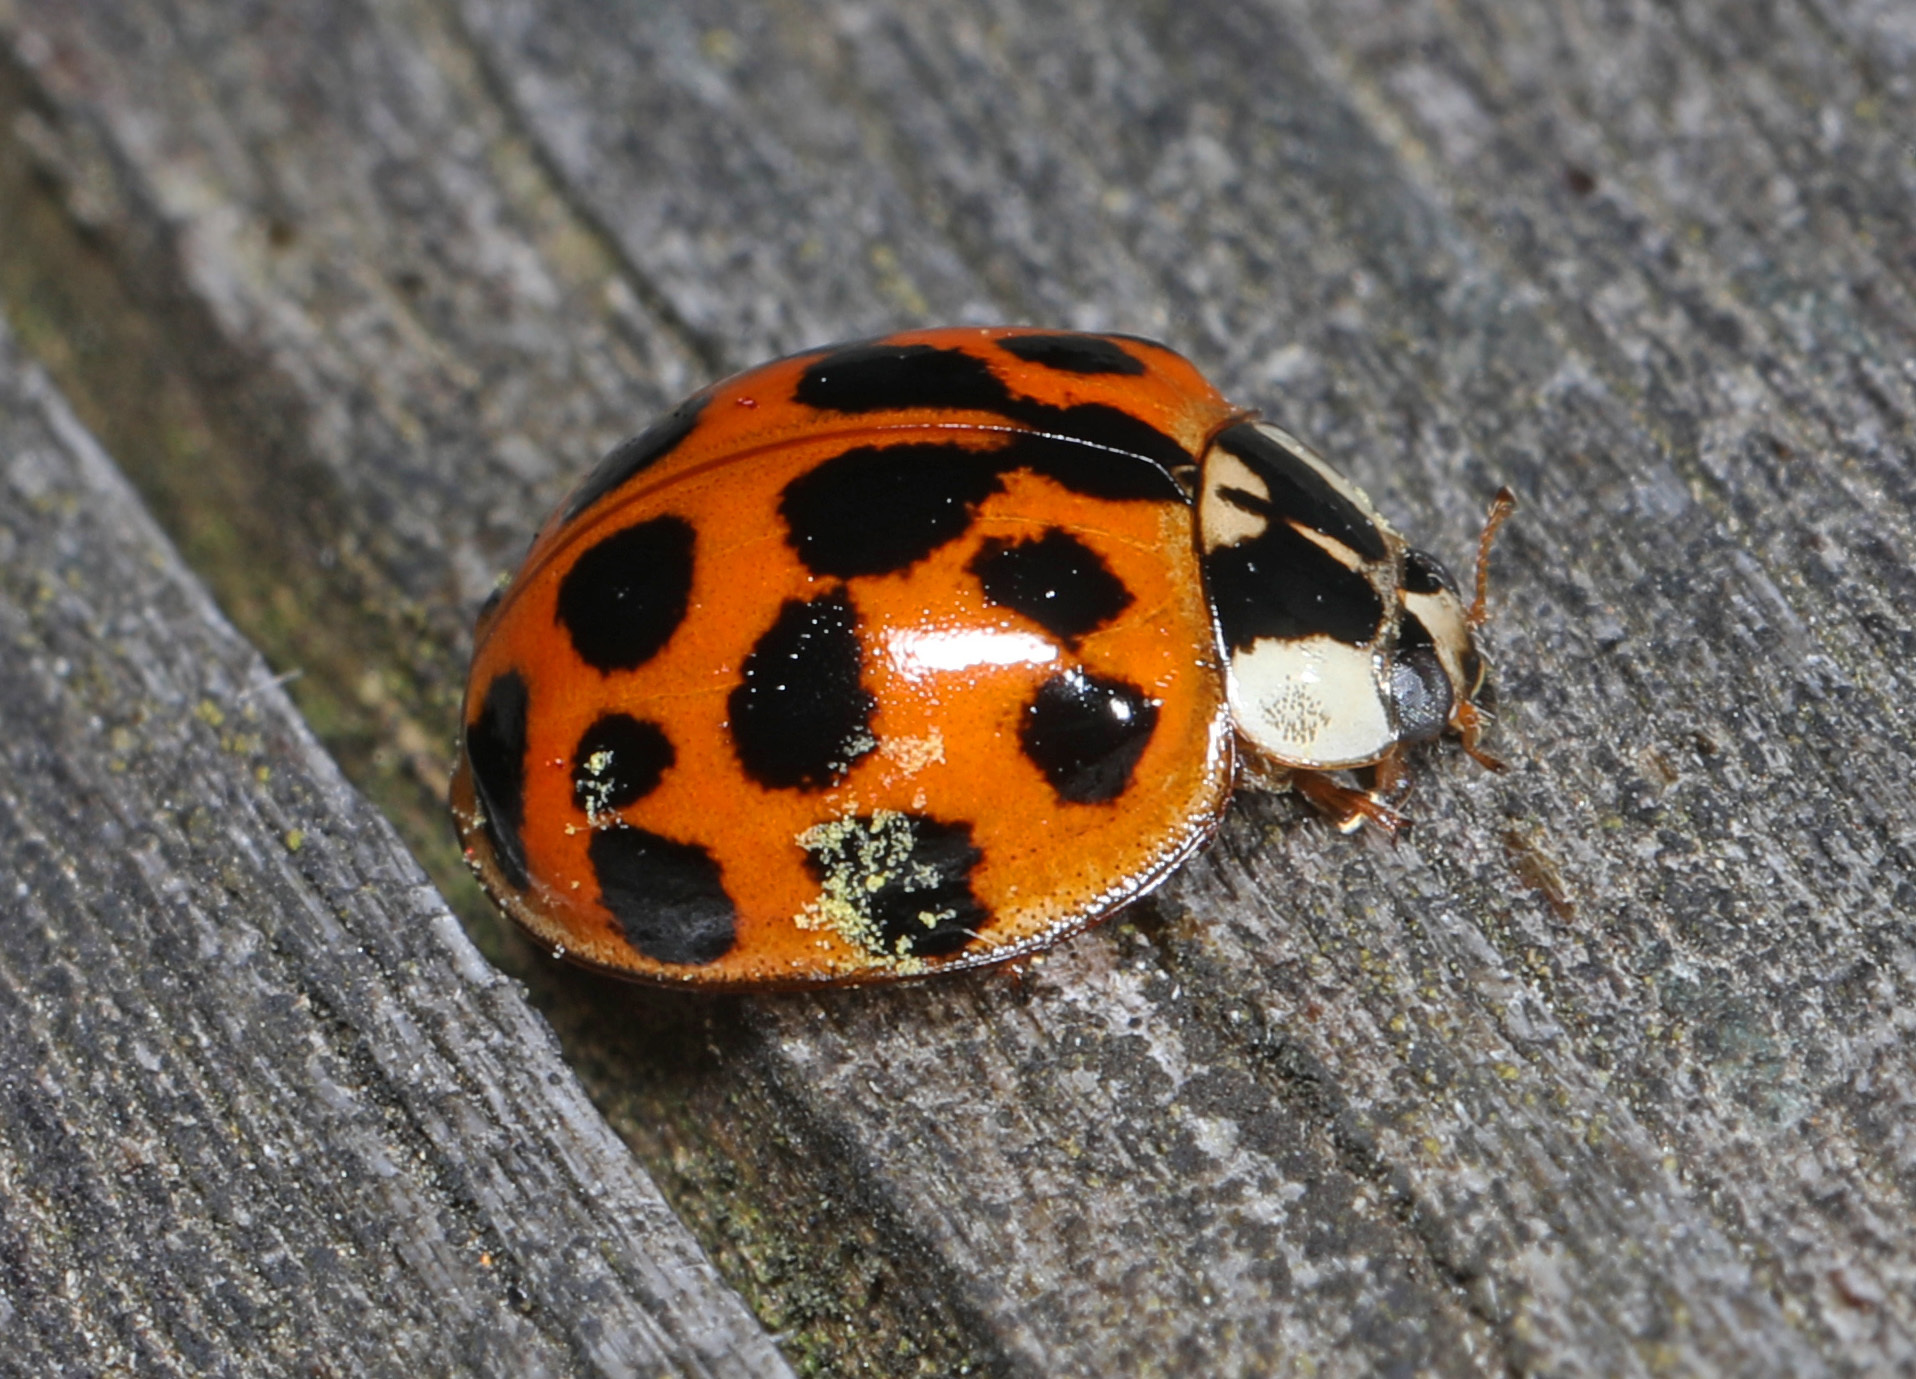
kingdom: Animalia
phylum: Arthropoda
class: Insecta
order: Coleoptera
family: Coccinellidae
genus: Harmonia
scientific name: Harmonia axyridis
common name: Harlequin ladybird
